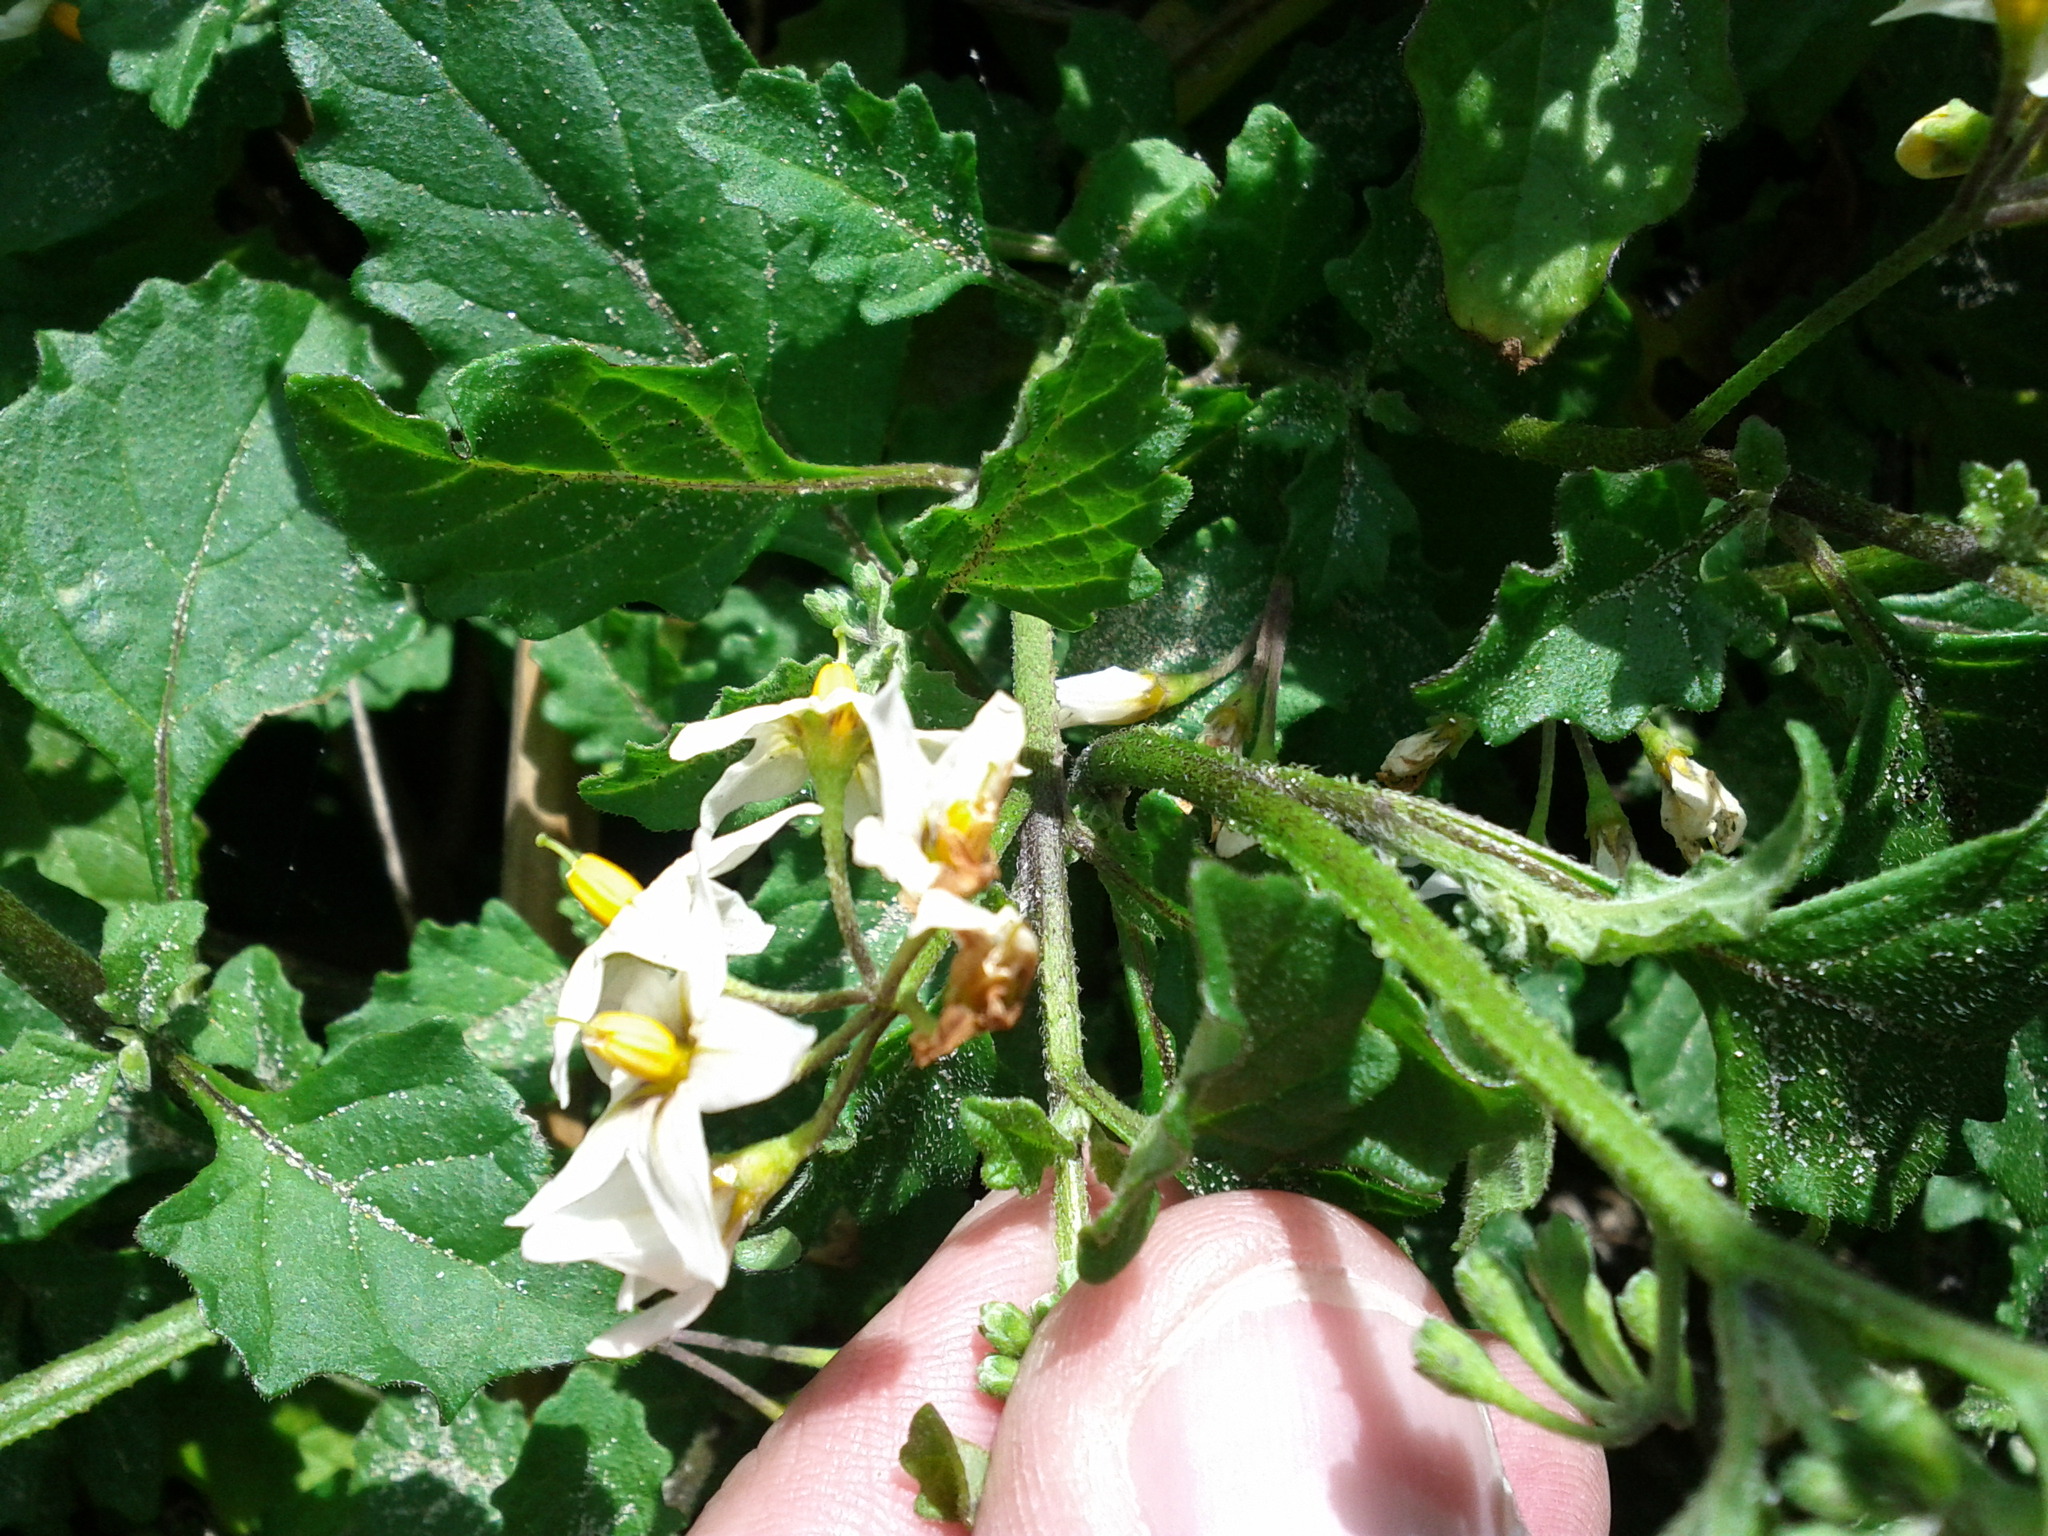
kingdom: Plantae
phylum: Tracheophyta
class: Magnoliopsida
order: Solanales
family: Solanaceae
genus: Solanum
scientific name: Solanum douglasii
